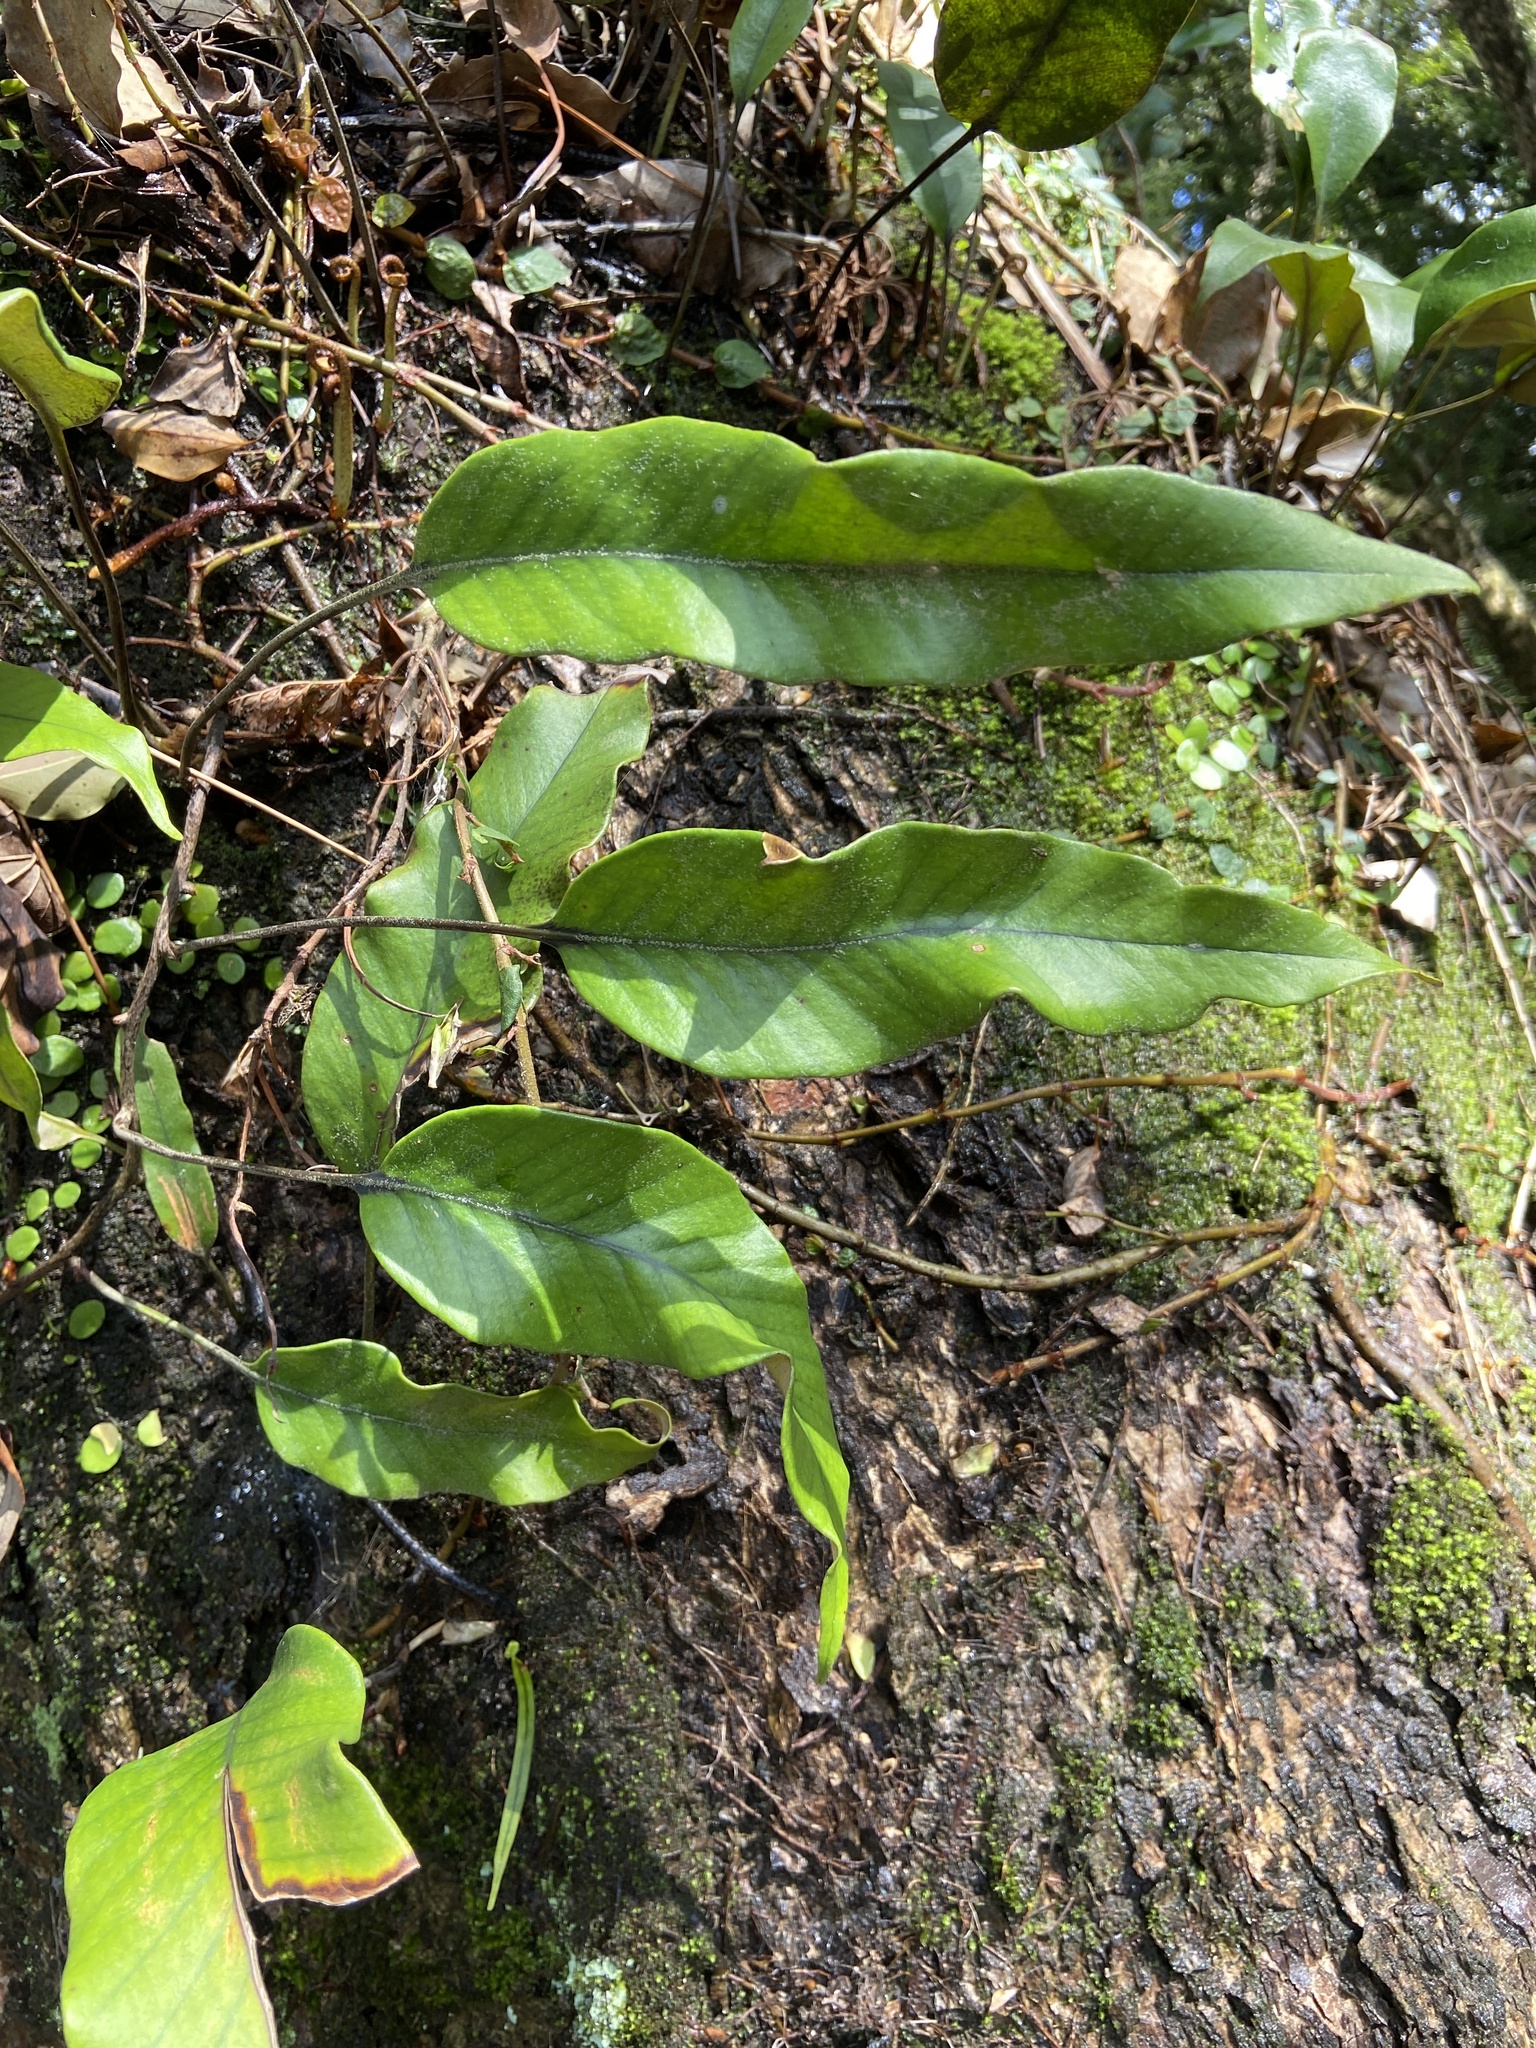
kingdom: Plantae
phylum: Tracheophyta
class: Polypodiopsida
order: Polypodiales
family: Polypodiaceae
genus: Pyrrosia
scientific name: Pyrrosia lingua
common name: Felt fern
